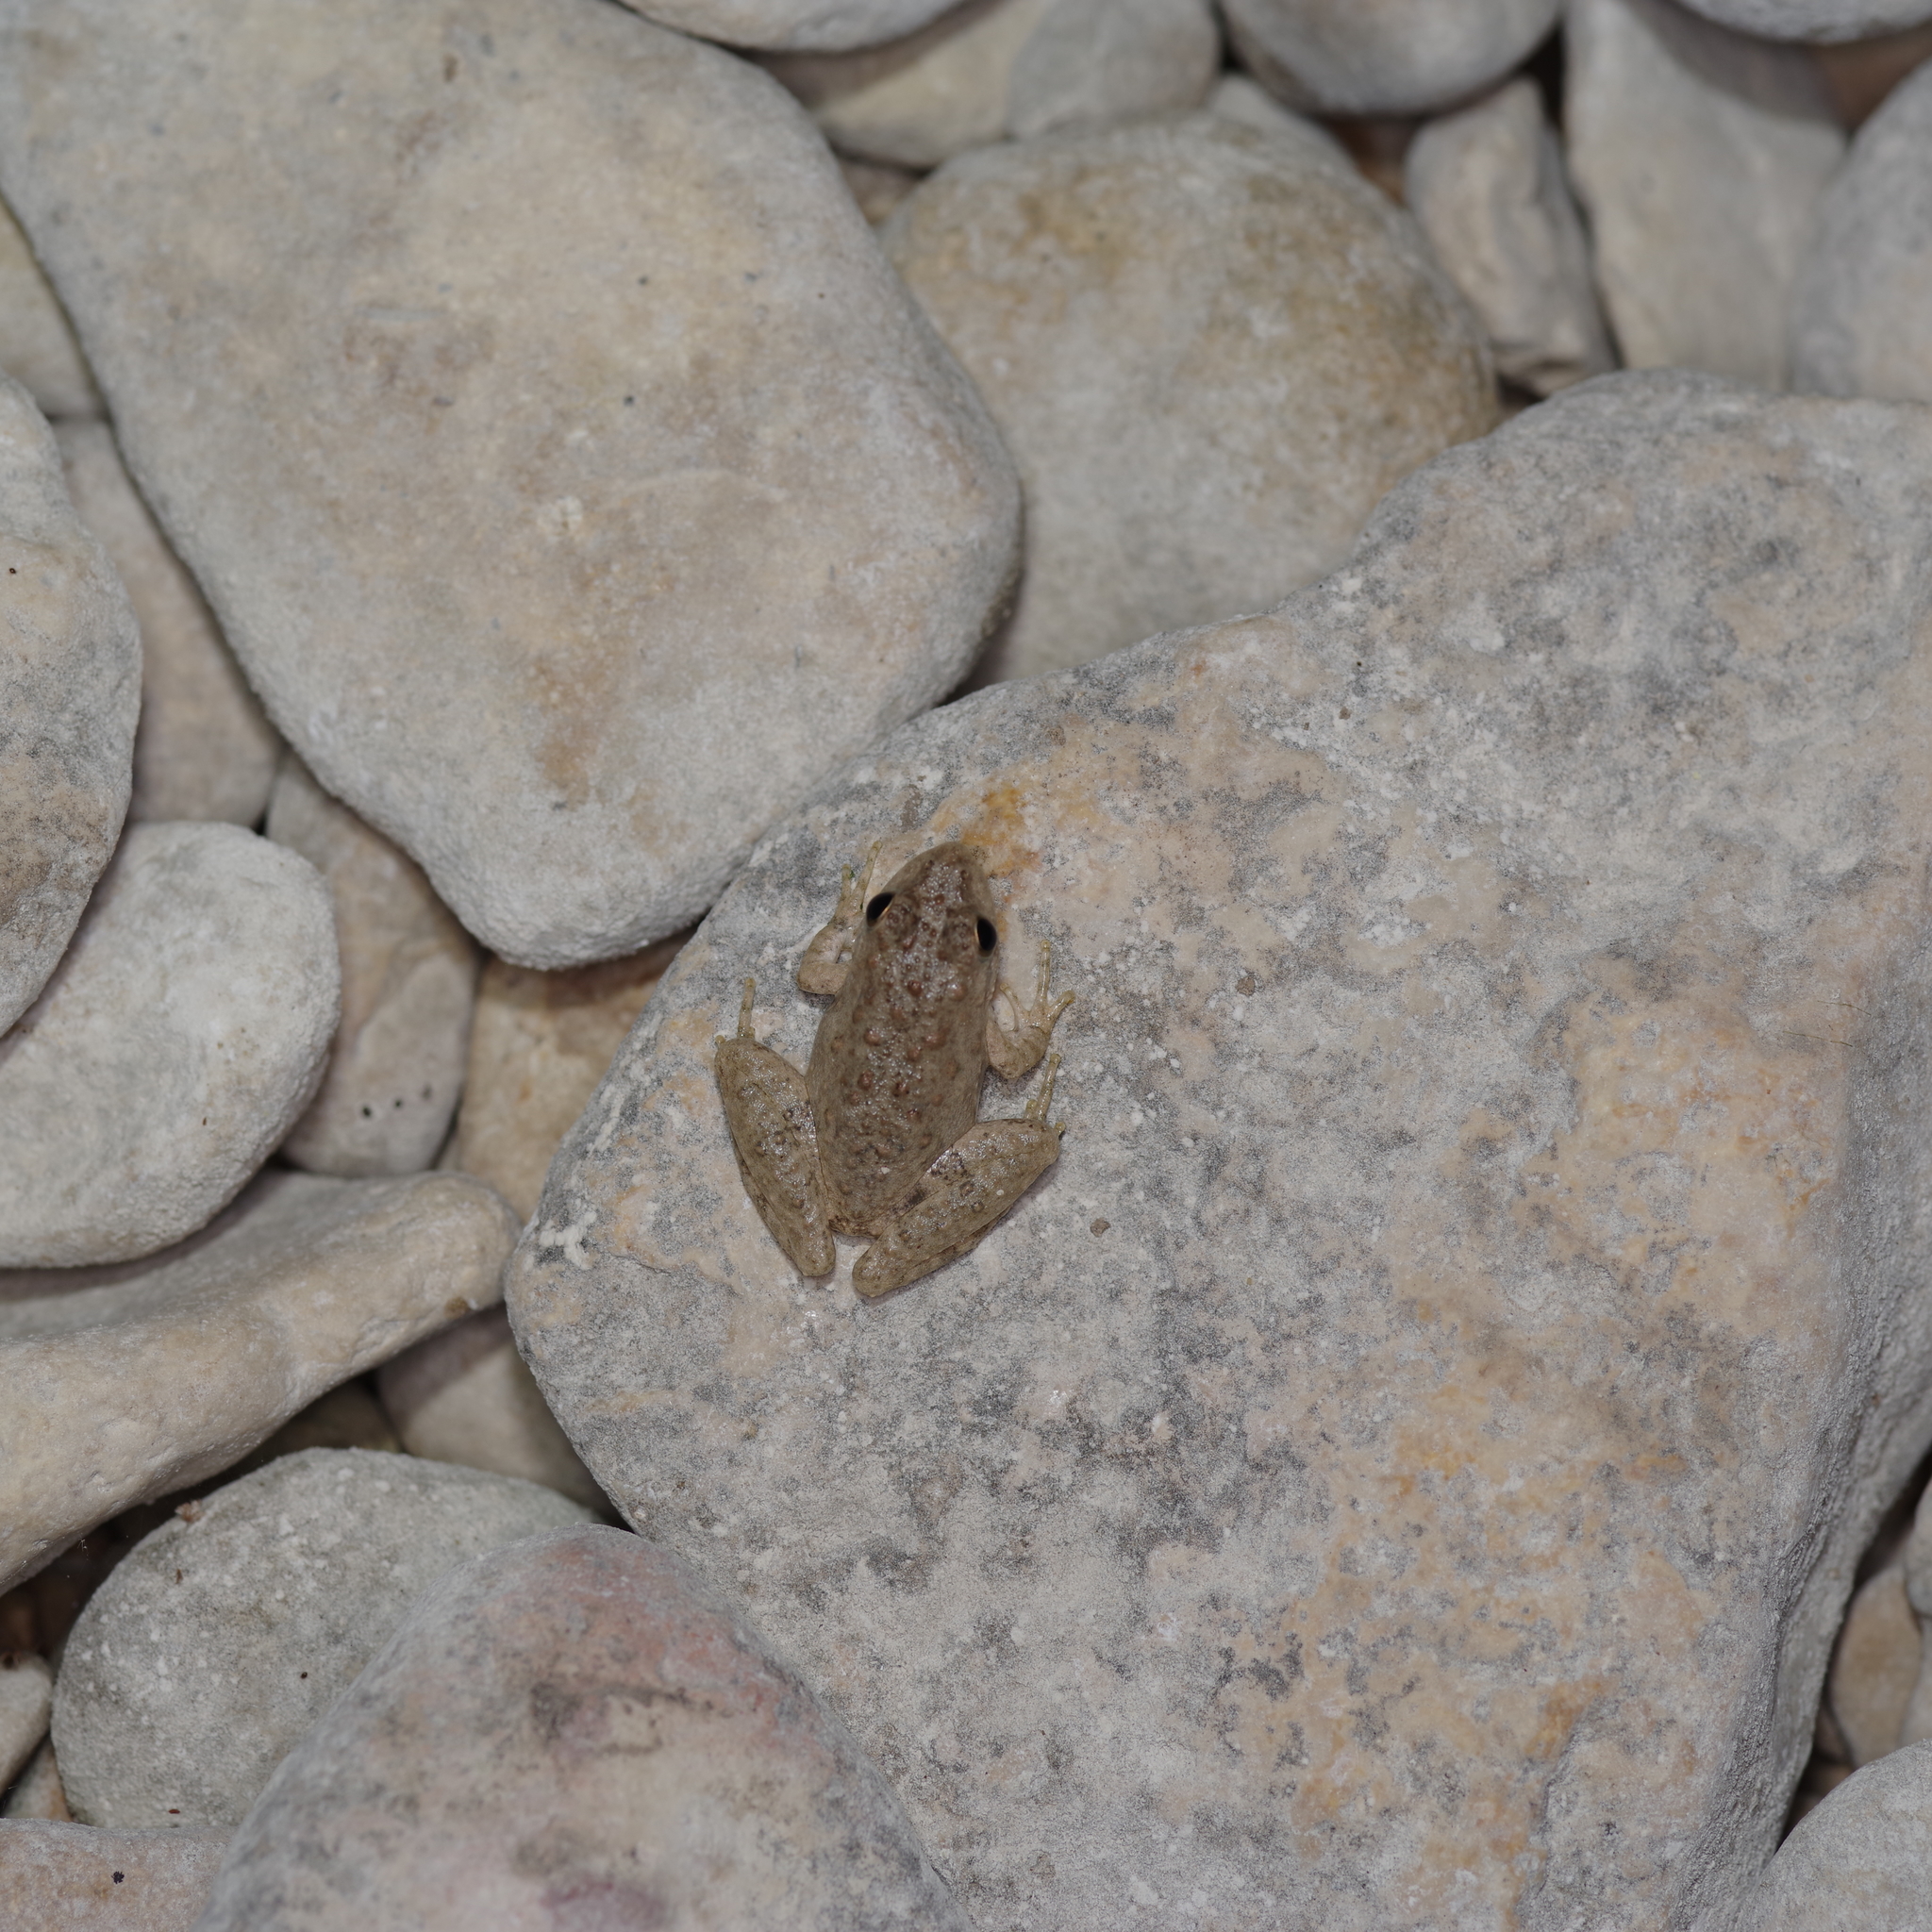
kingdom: Animalia
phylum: Chordata
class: Amphibia
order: Anura
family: Hylidae
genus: Acris
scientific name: Acris blanchardi
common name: Blanchard's cricket frog
